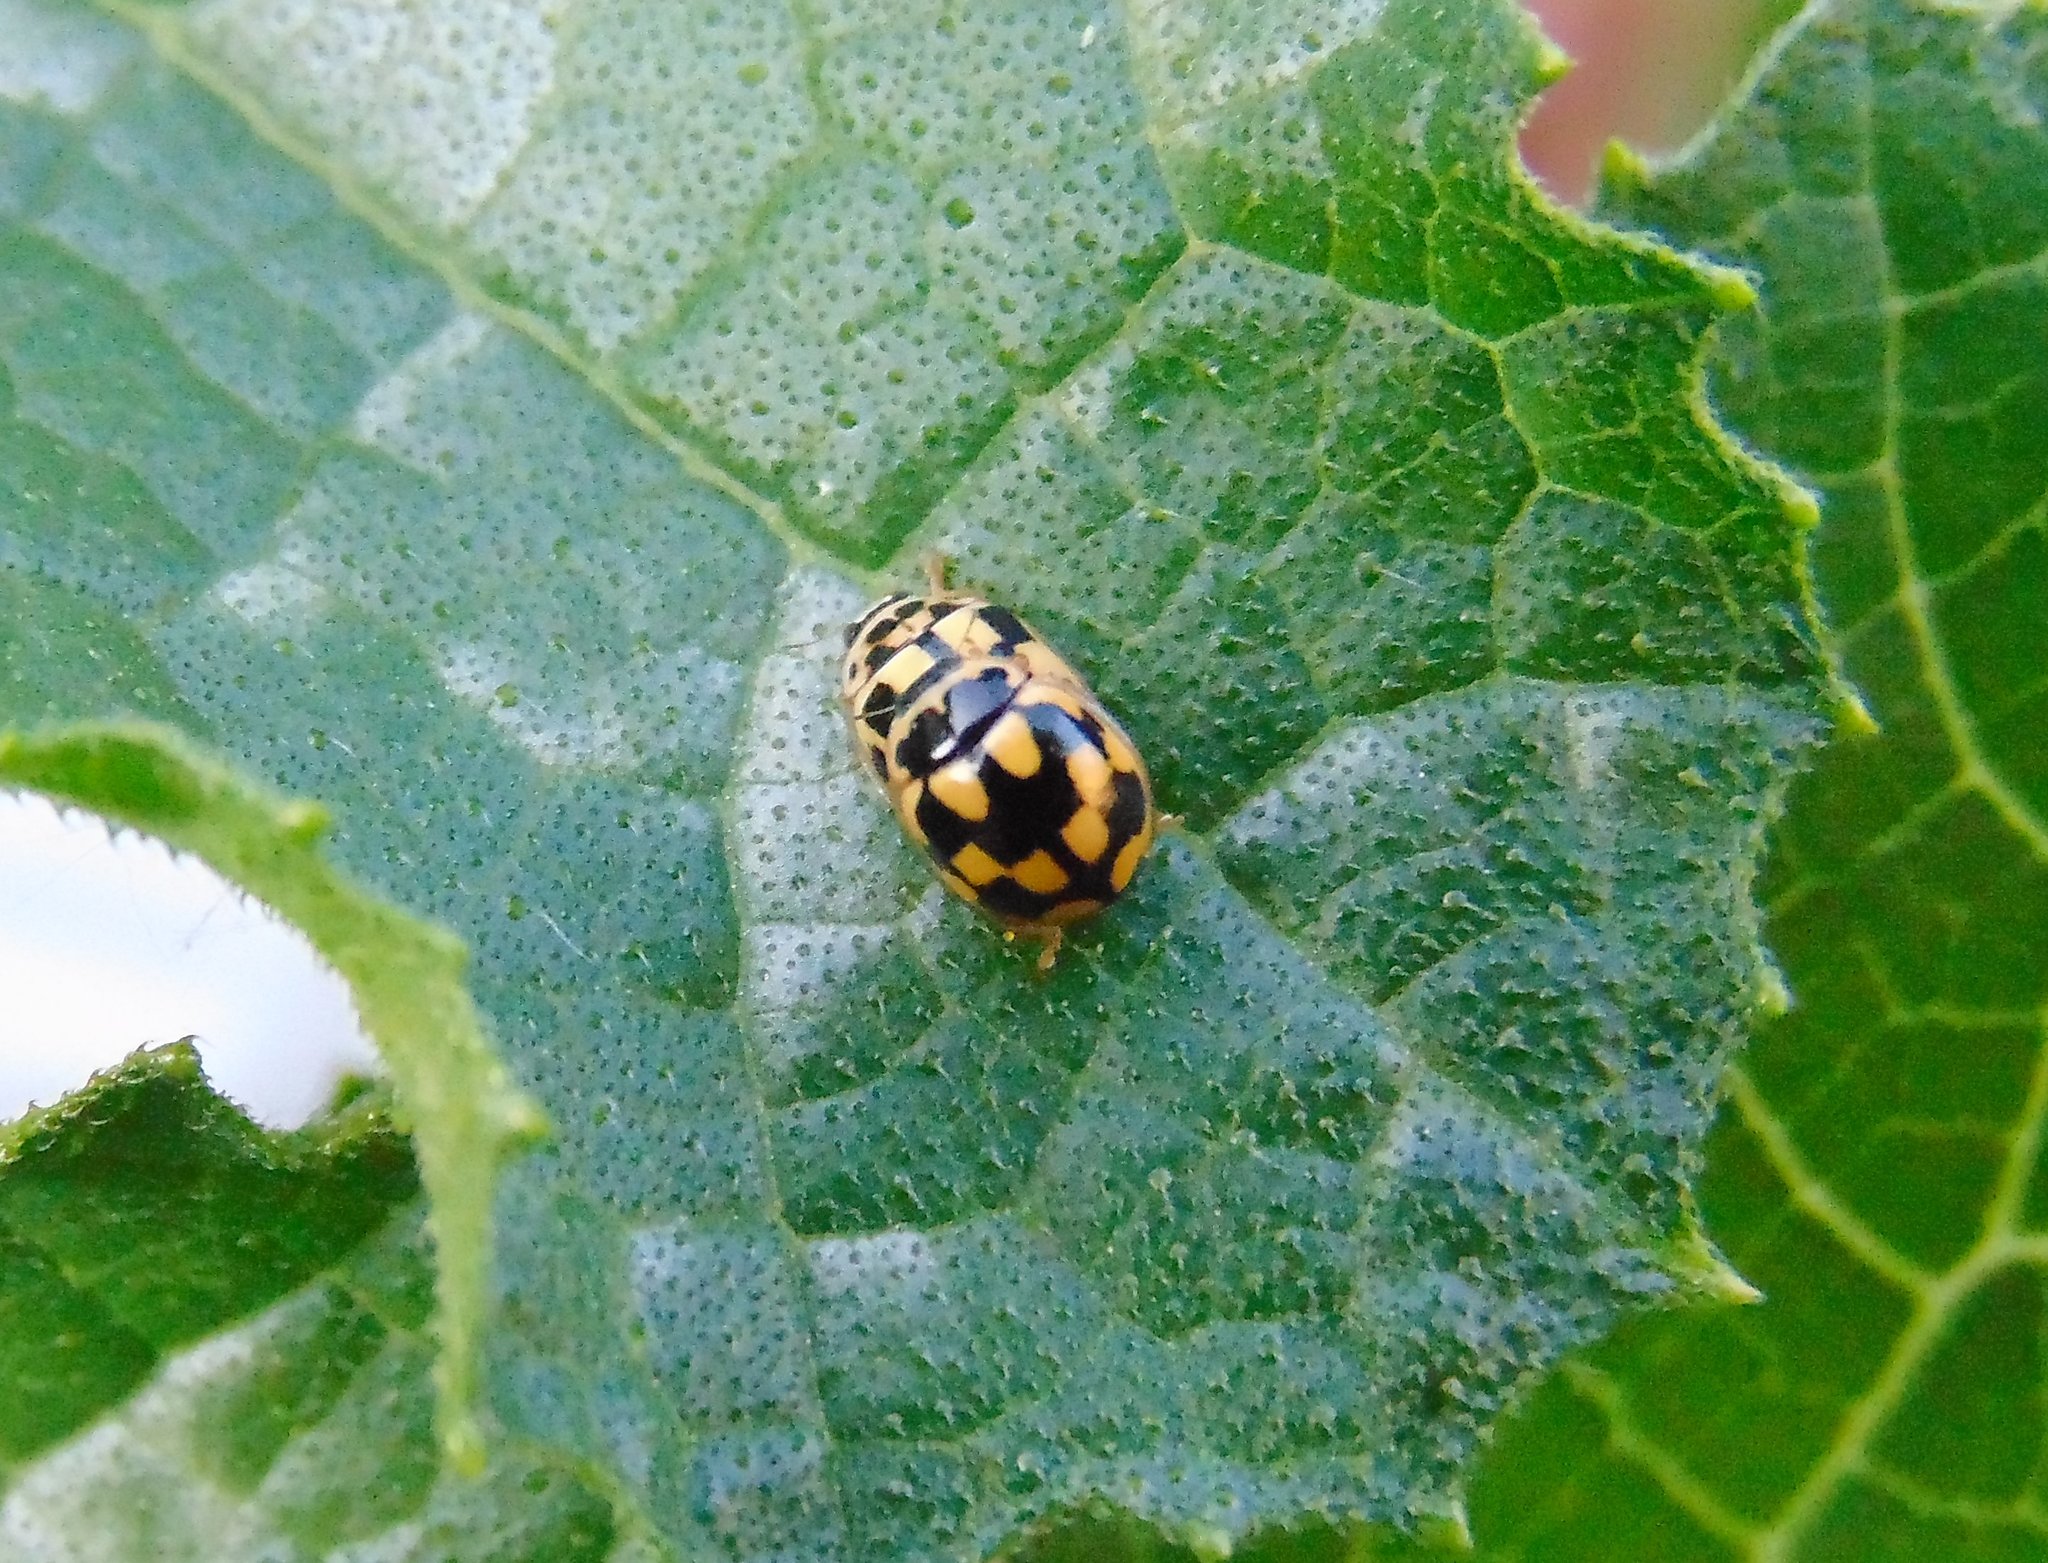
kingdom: Animalia
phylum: Arthropoda
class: Insecta
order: Coleoptera
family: Coccinellidae
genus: Propylaea
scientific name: Propylaea quatuordecimpunctata
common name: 14-spotted ladybird beetle
